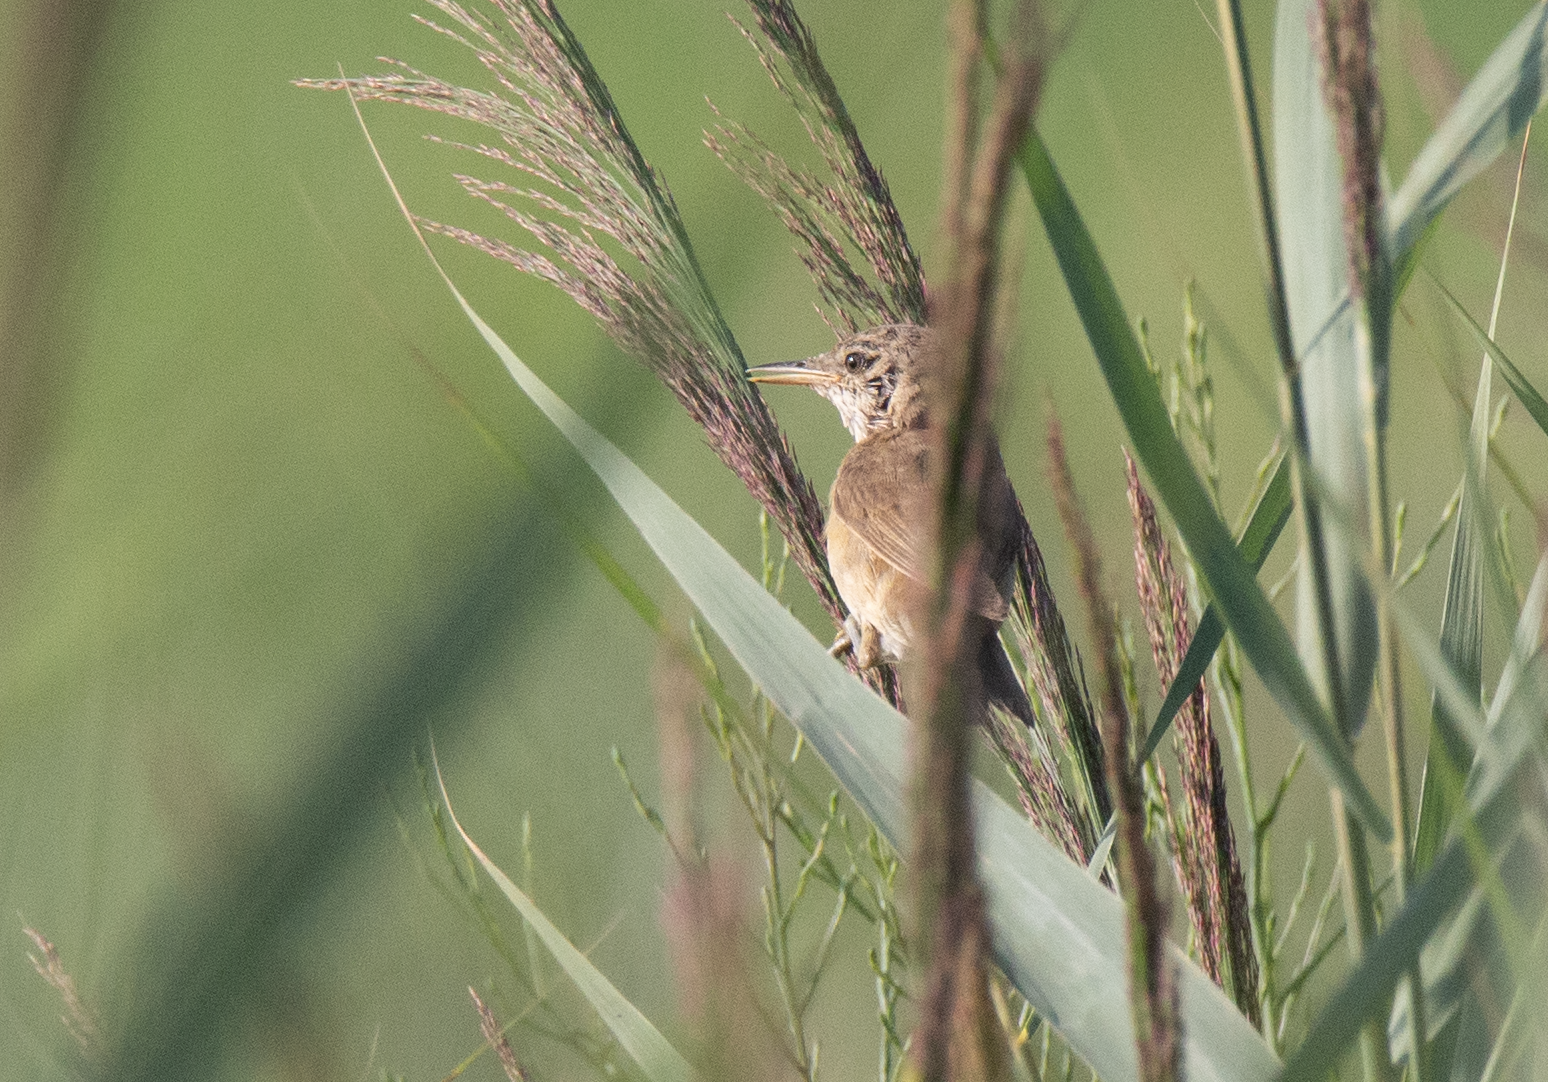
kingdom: Animalia
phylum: Chordata
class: Aves
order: Passeriformes
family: Acrocephalidae
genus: Acrocephalus
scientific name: Acrocephalus scirpaceus
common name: Eurasian reed warbler
